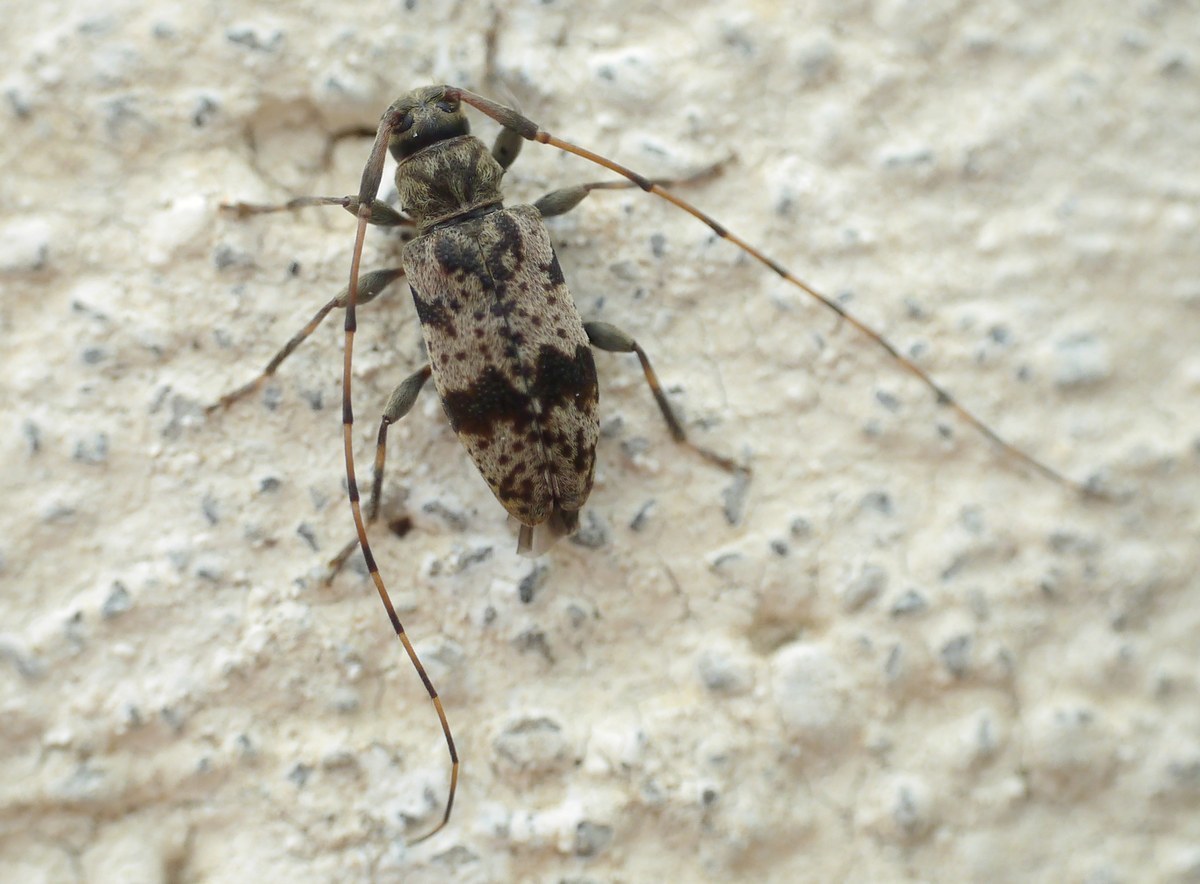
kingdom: Animalia
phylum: Arthropoda
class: Insecta
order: Coleoptera
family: Cerambycidae
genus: Leiopus
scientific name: Leiopus femoratus
